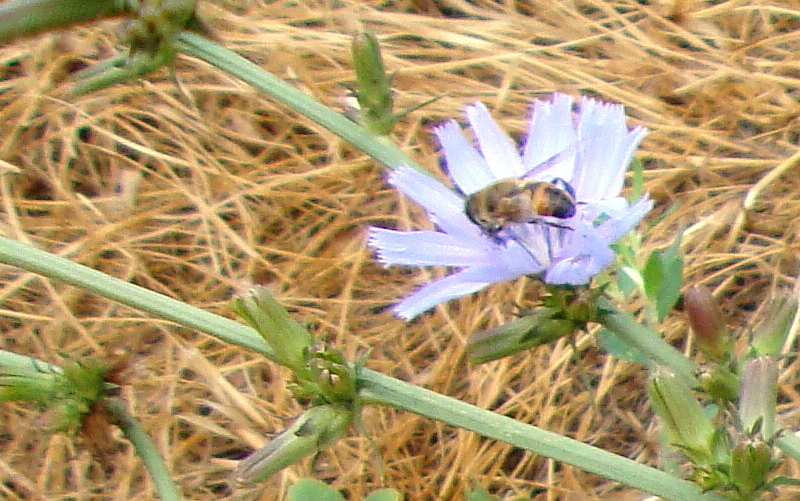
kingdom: Animalia
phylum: Arthropoda
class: Insecta
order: Diptera
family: Syrphidae
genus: Eristalis
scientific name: Eristalis tenax
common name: Drone fly
